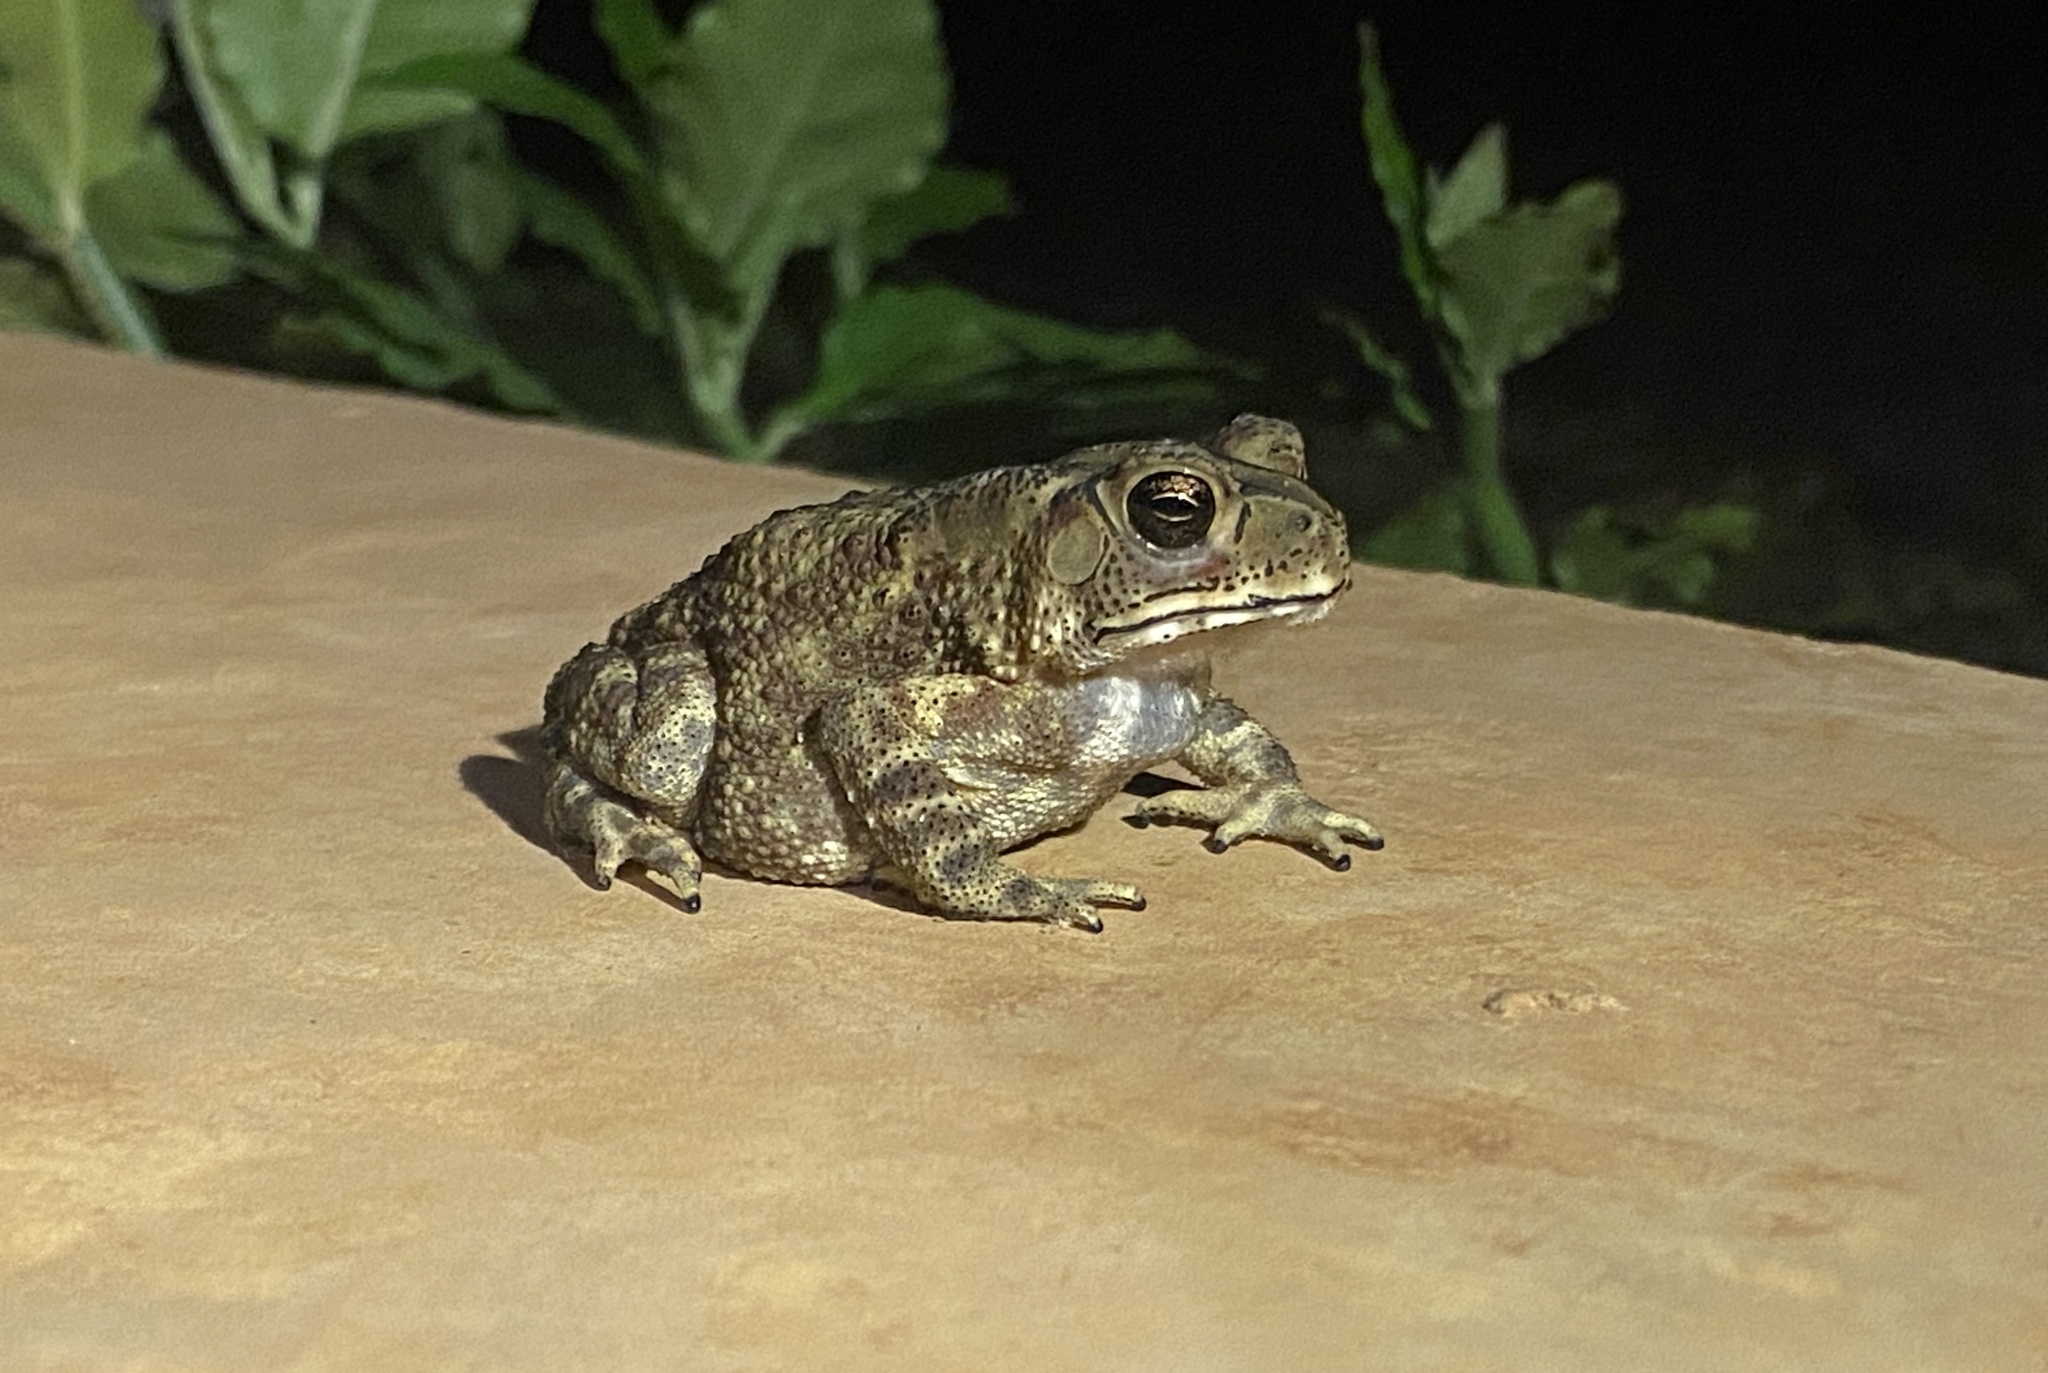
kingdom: Animalia
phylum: Chordata
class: Amphibia
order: Anura
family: Bufonidae
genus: Duttaphrynus
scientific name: Duttaphrynus melanostictus
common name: Common sunda toad
